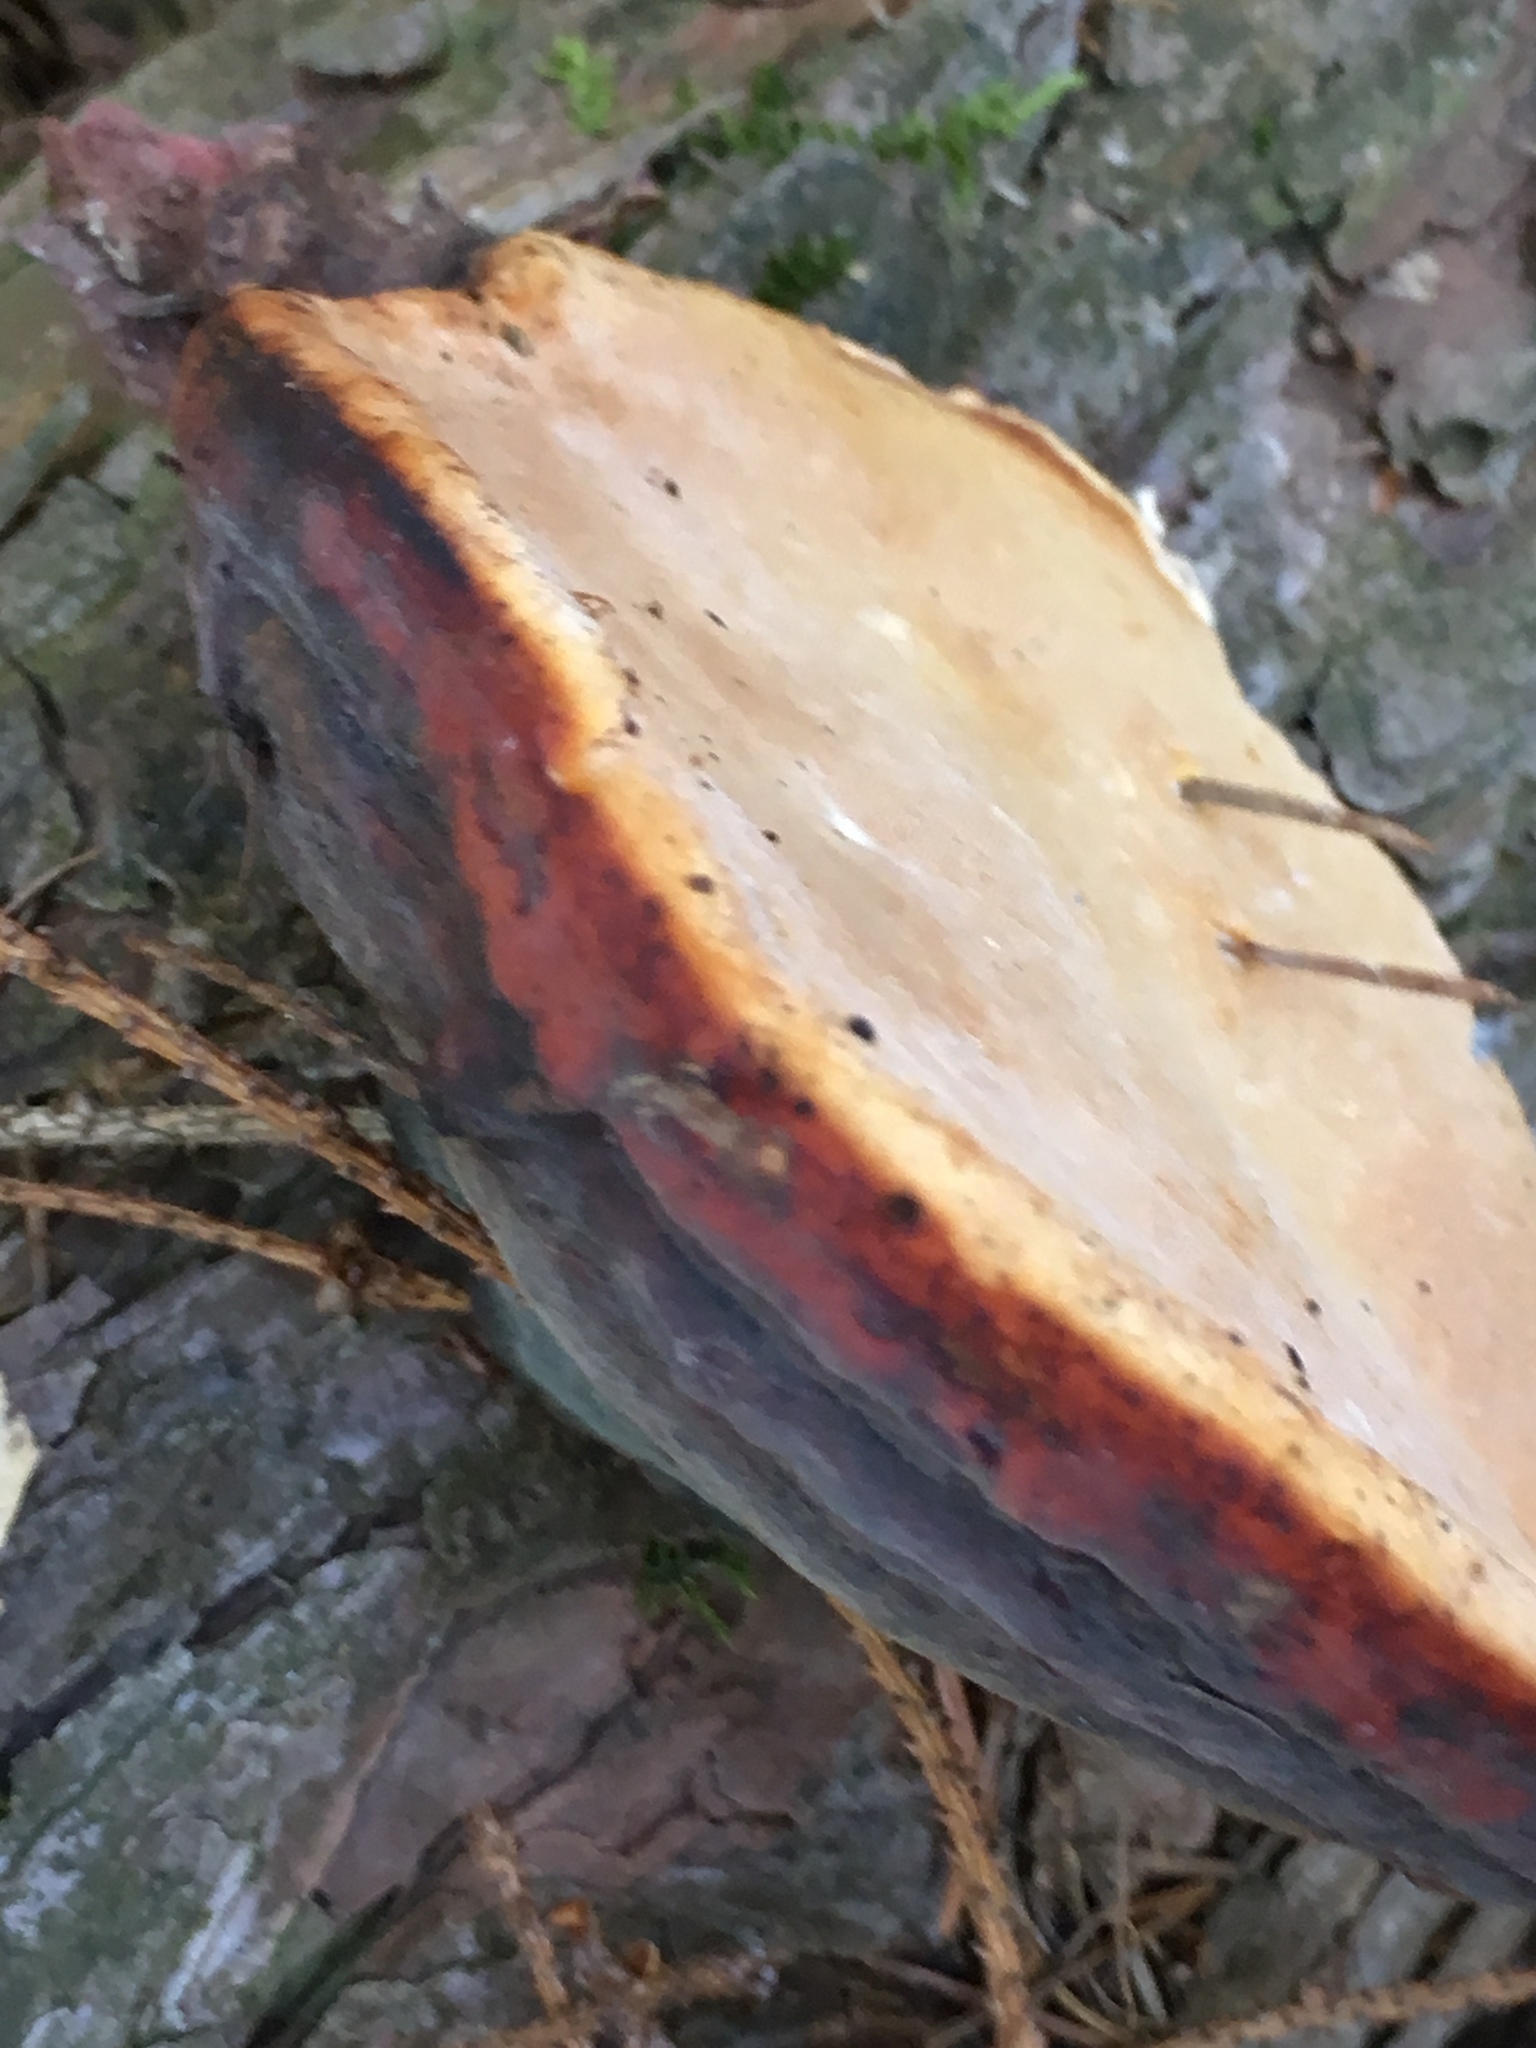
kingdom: Fungi
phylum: Basidiomycota
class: Agaricomycetes
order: Polyporales
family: Fomitopsidaceae
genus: Fomitopsis
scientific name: Fomitopsis pinicola
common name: Red-belted bracket
